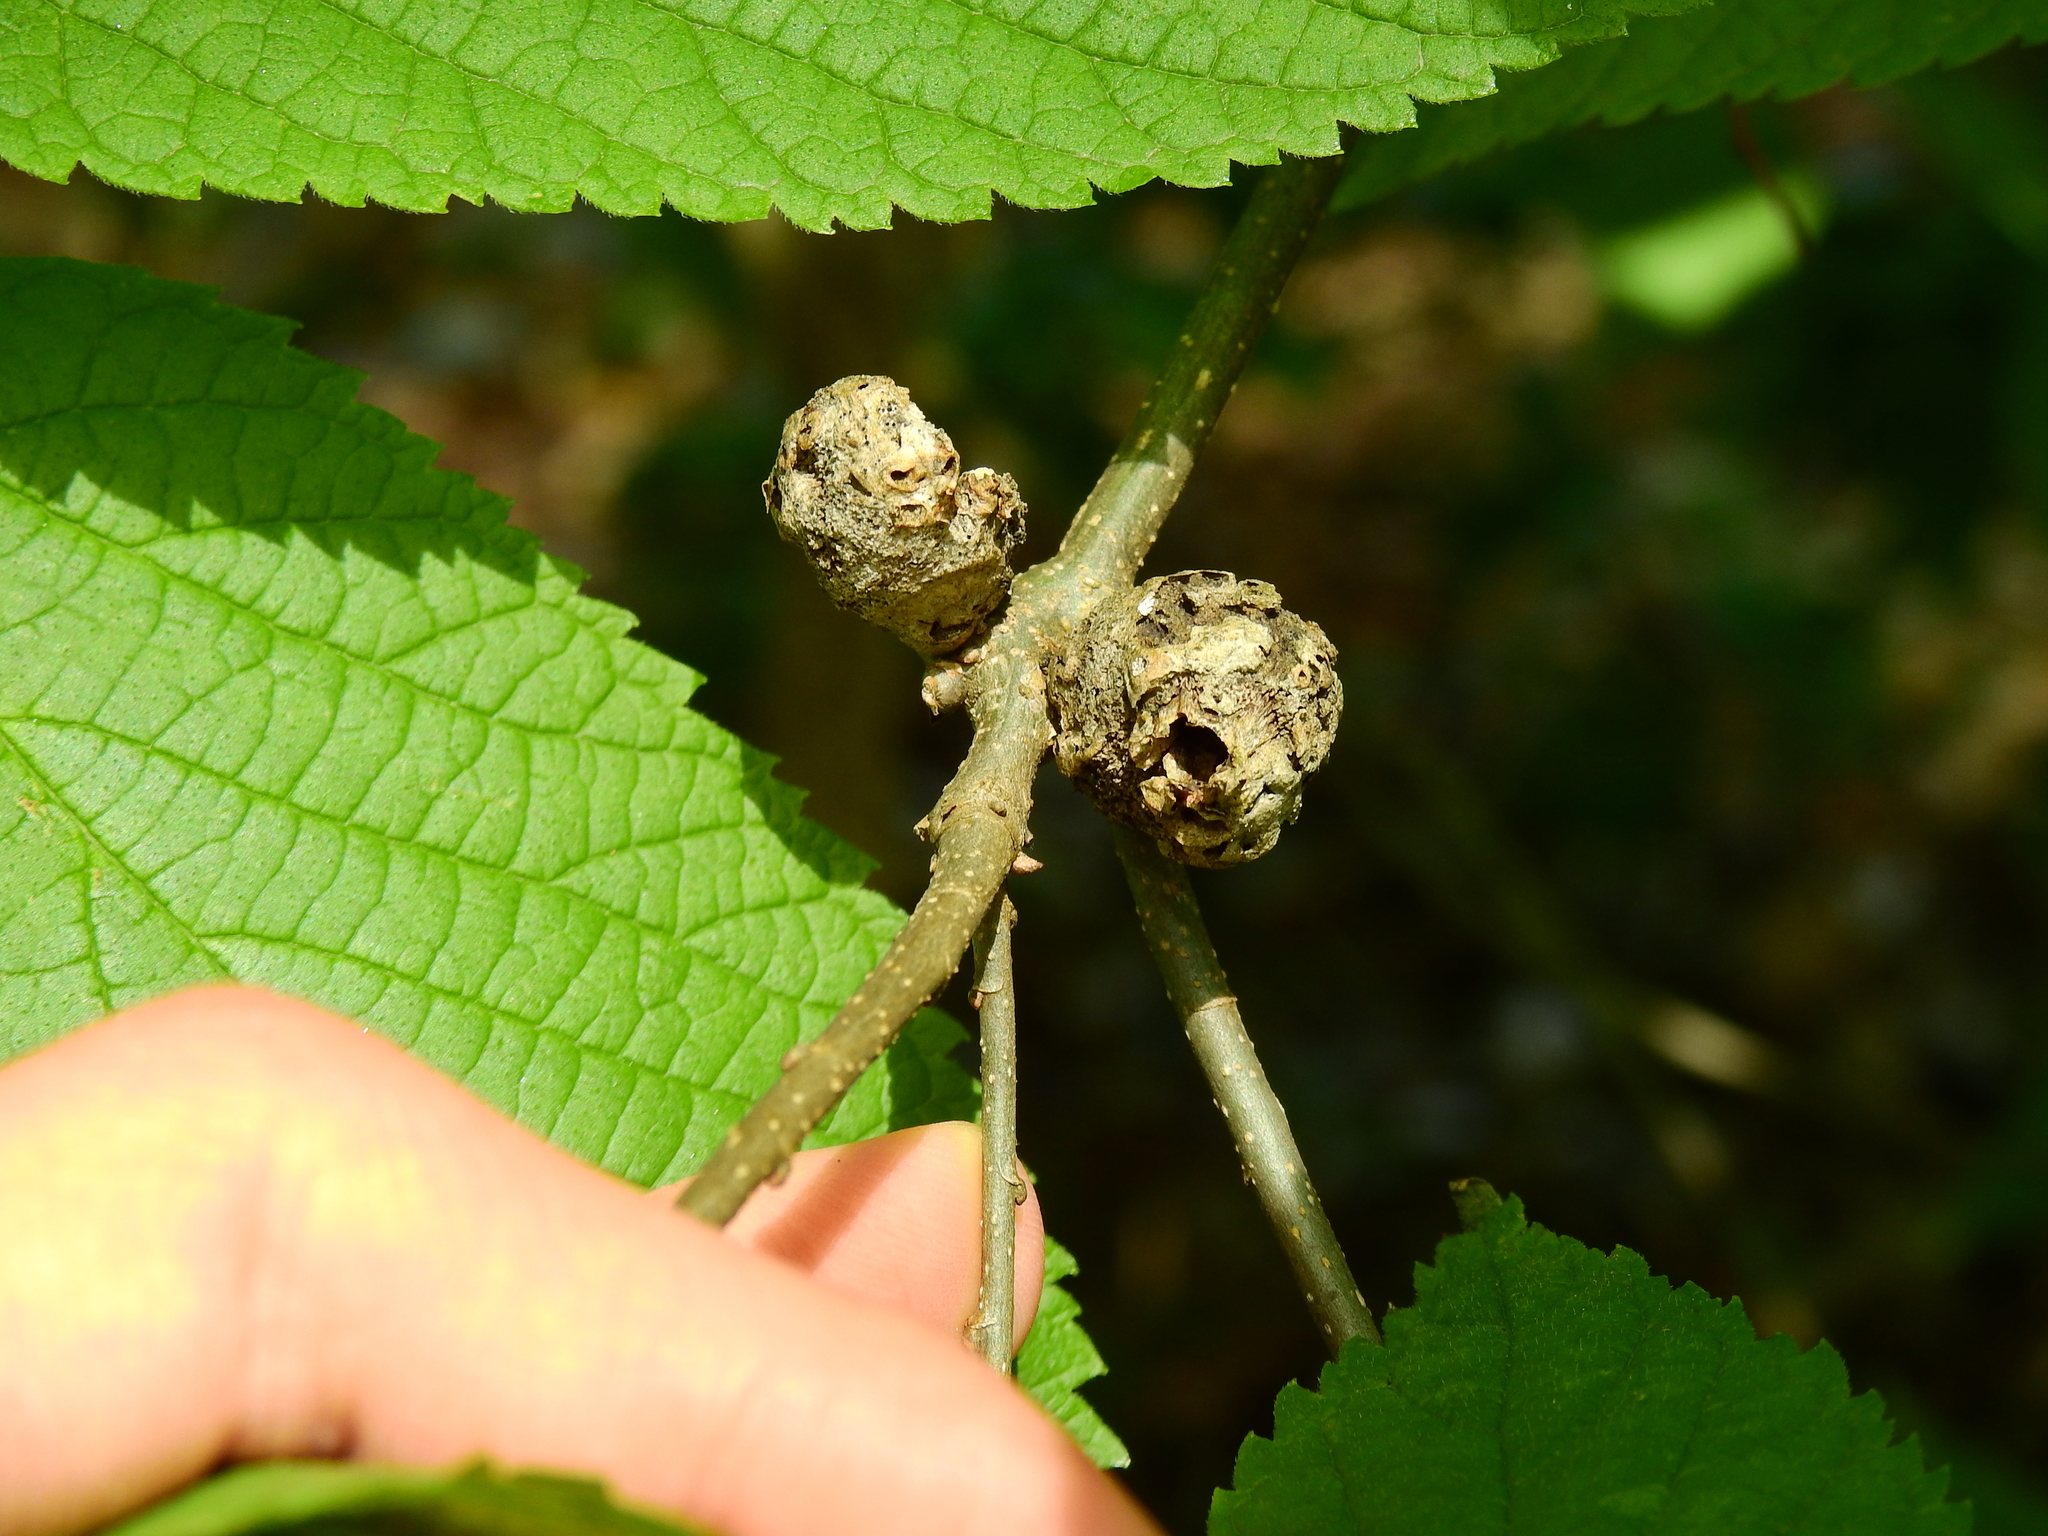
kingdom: Animalia
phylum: Arthropoda
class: Insecta
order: Hemiptera
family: Aphalaridae
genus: Pachypsylla
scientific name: Pachypsylla venusta
